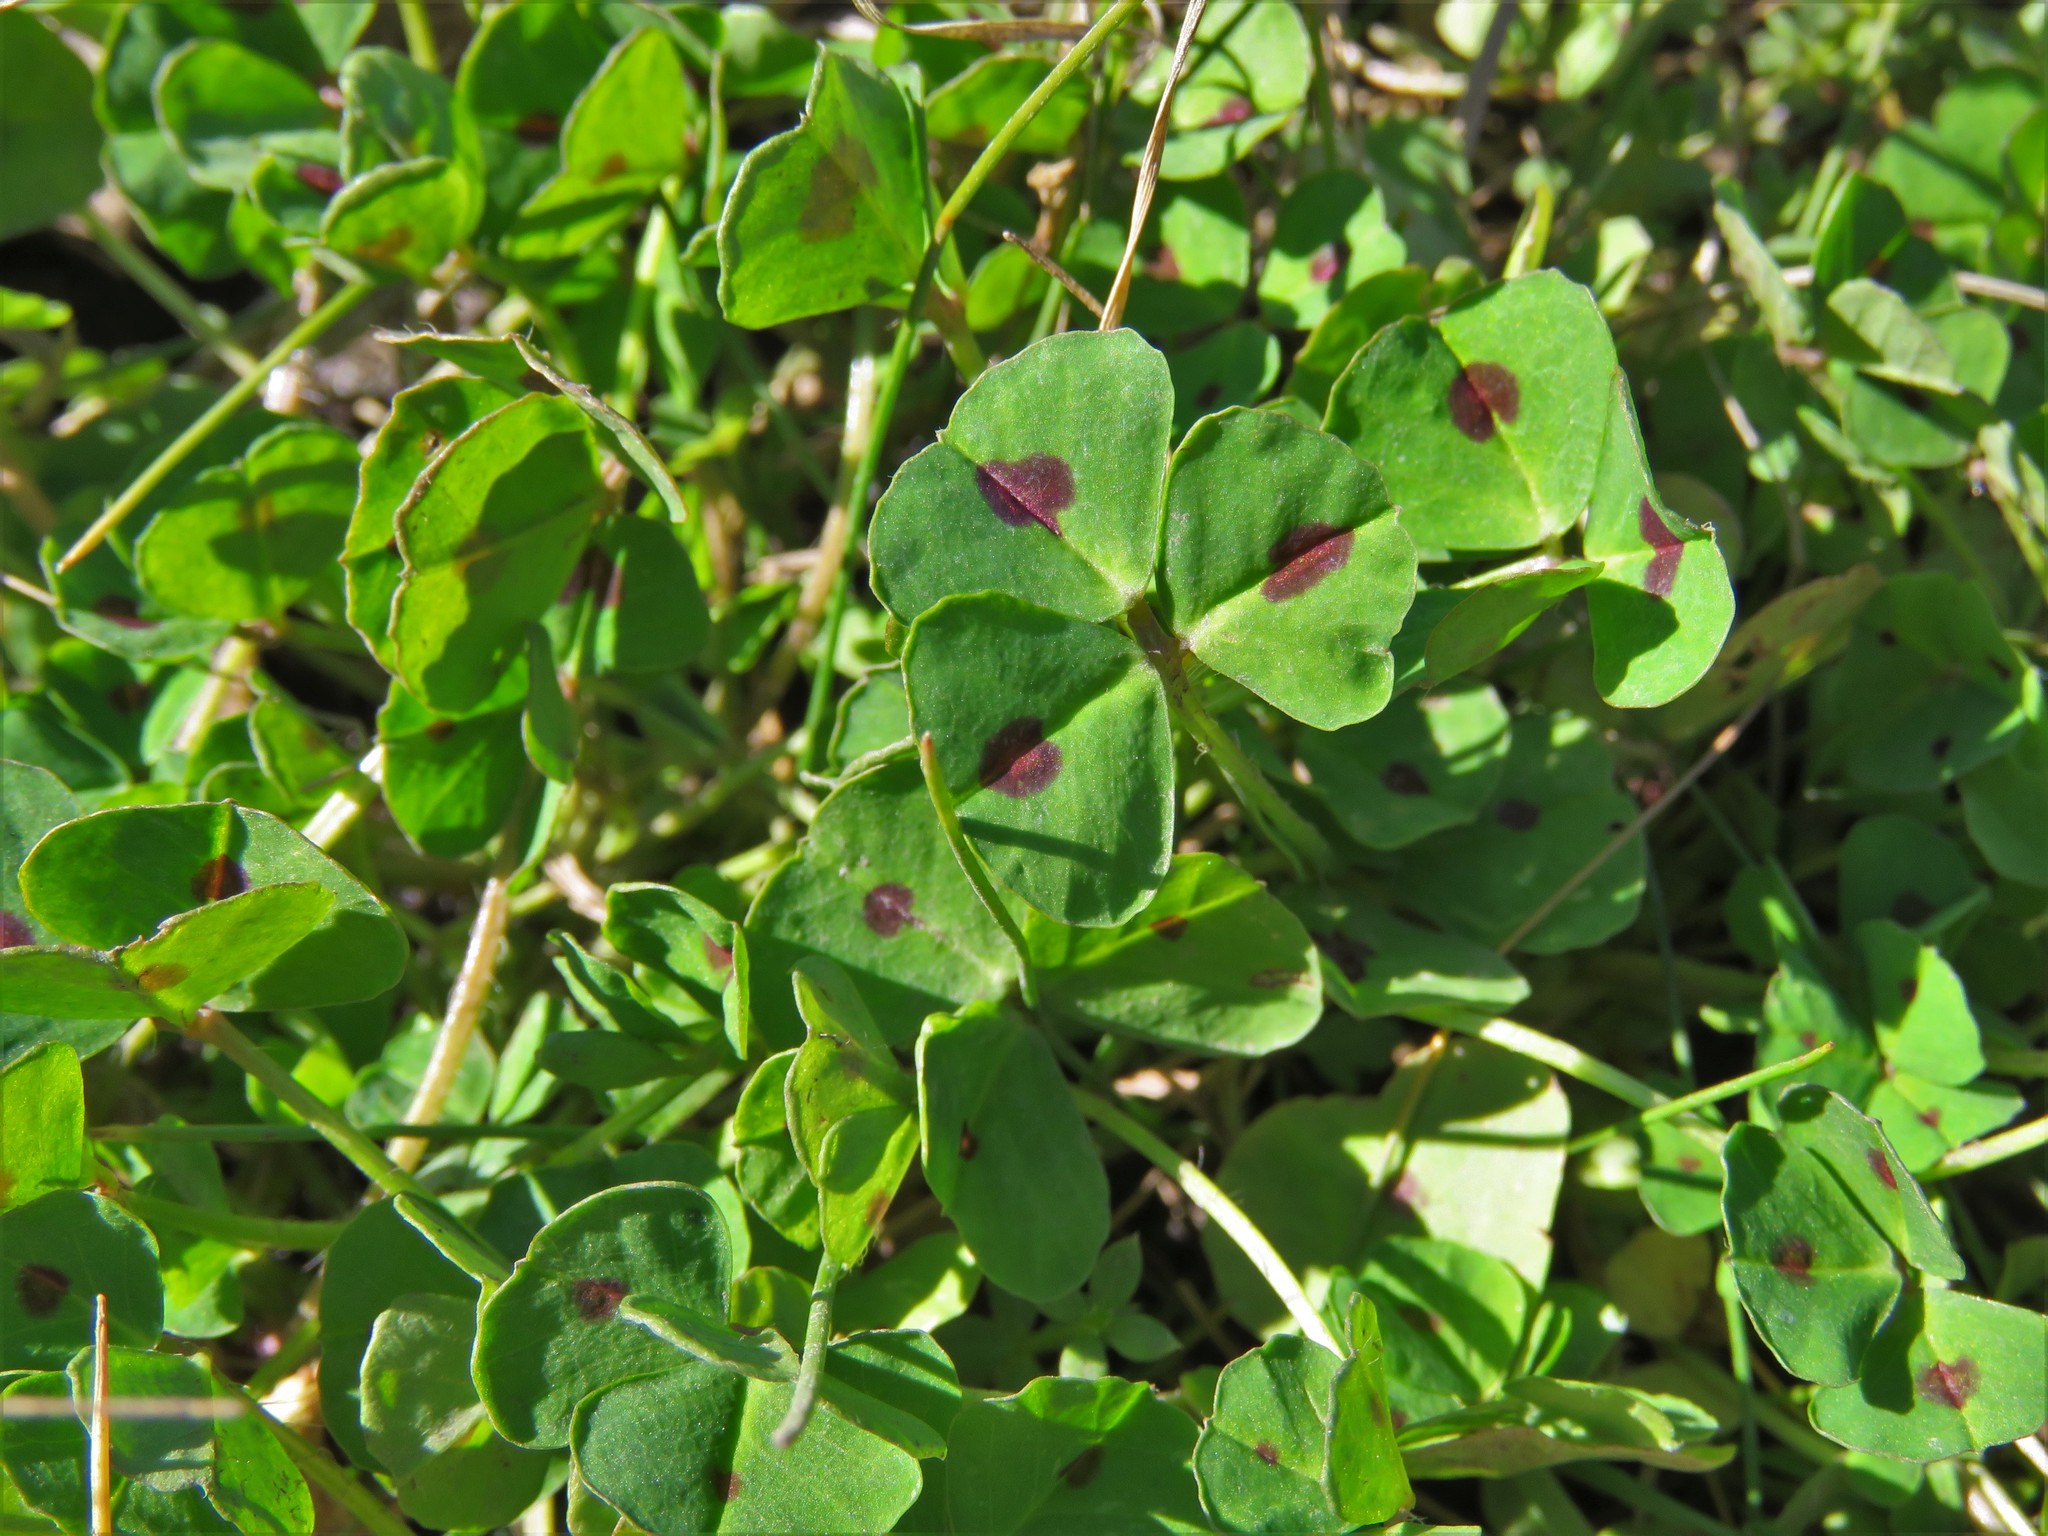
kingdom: Plantae
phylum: Tracheophyta
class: Magnoliopsida
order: Fabales
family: Fabaceae
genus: Medicago
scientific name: Medicago arabica
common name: Spotted medick
